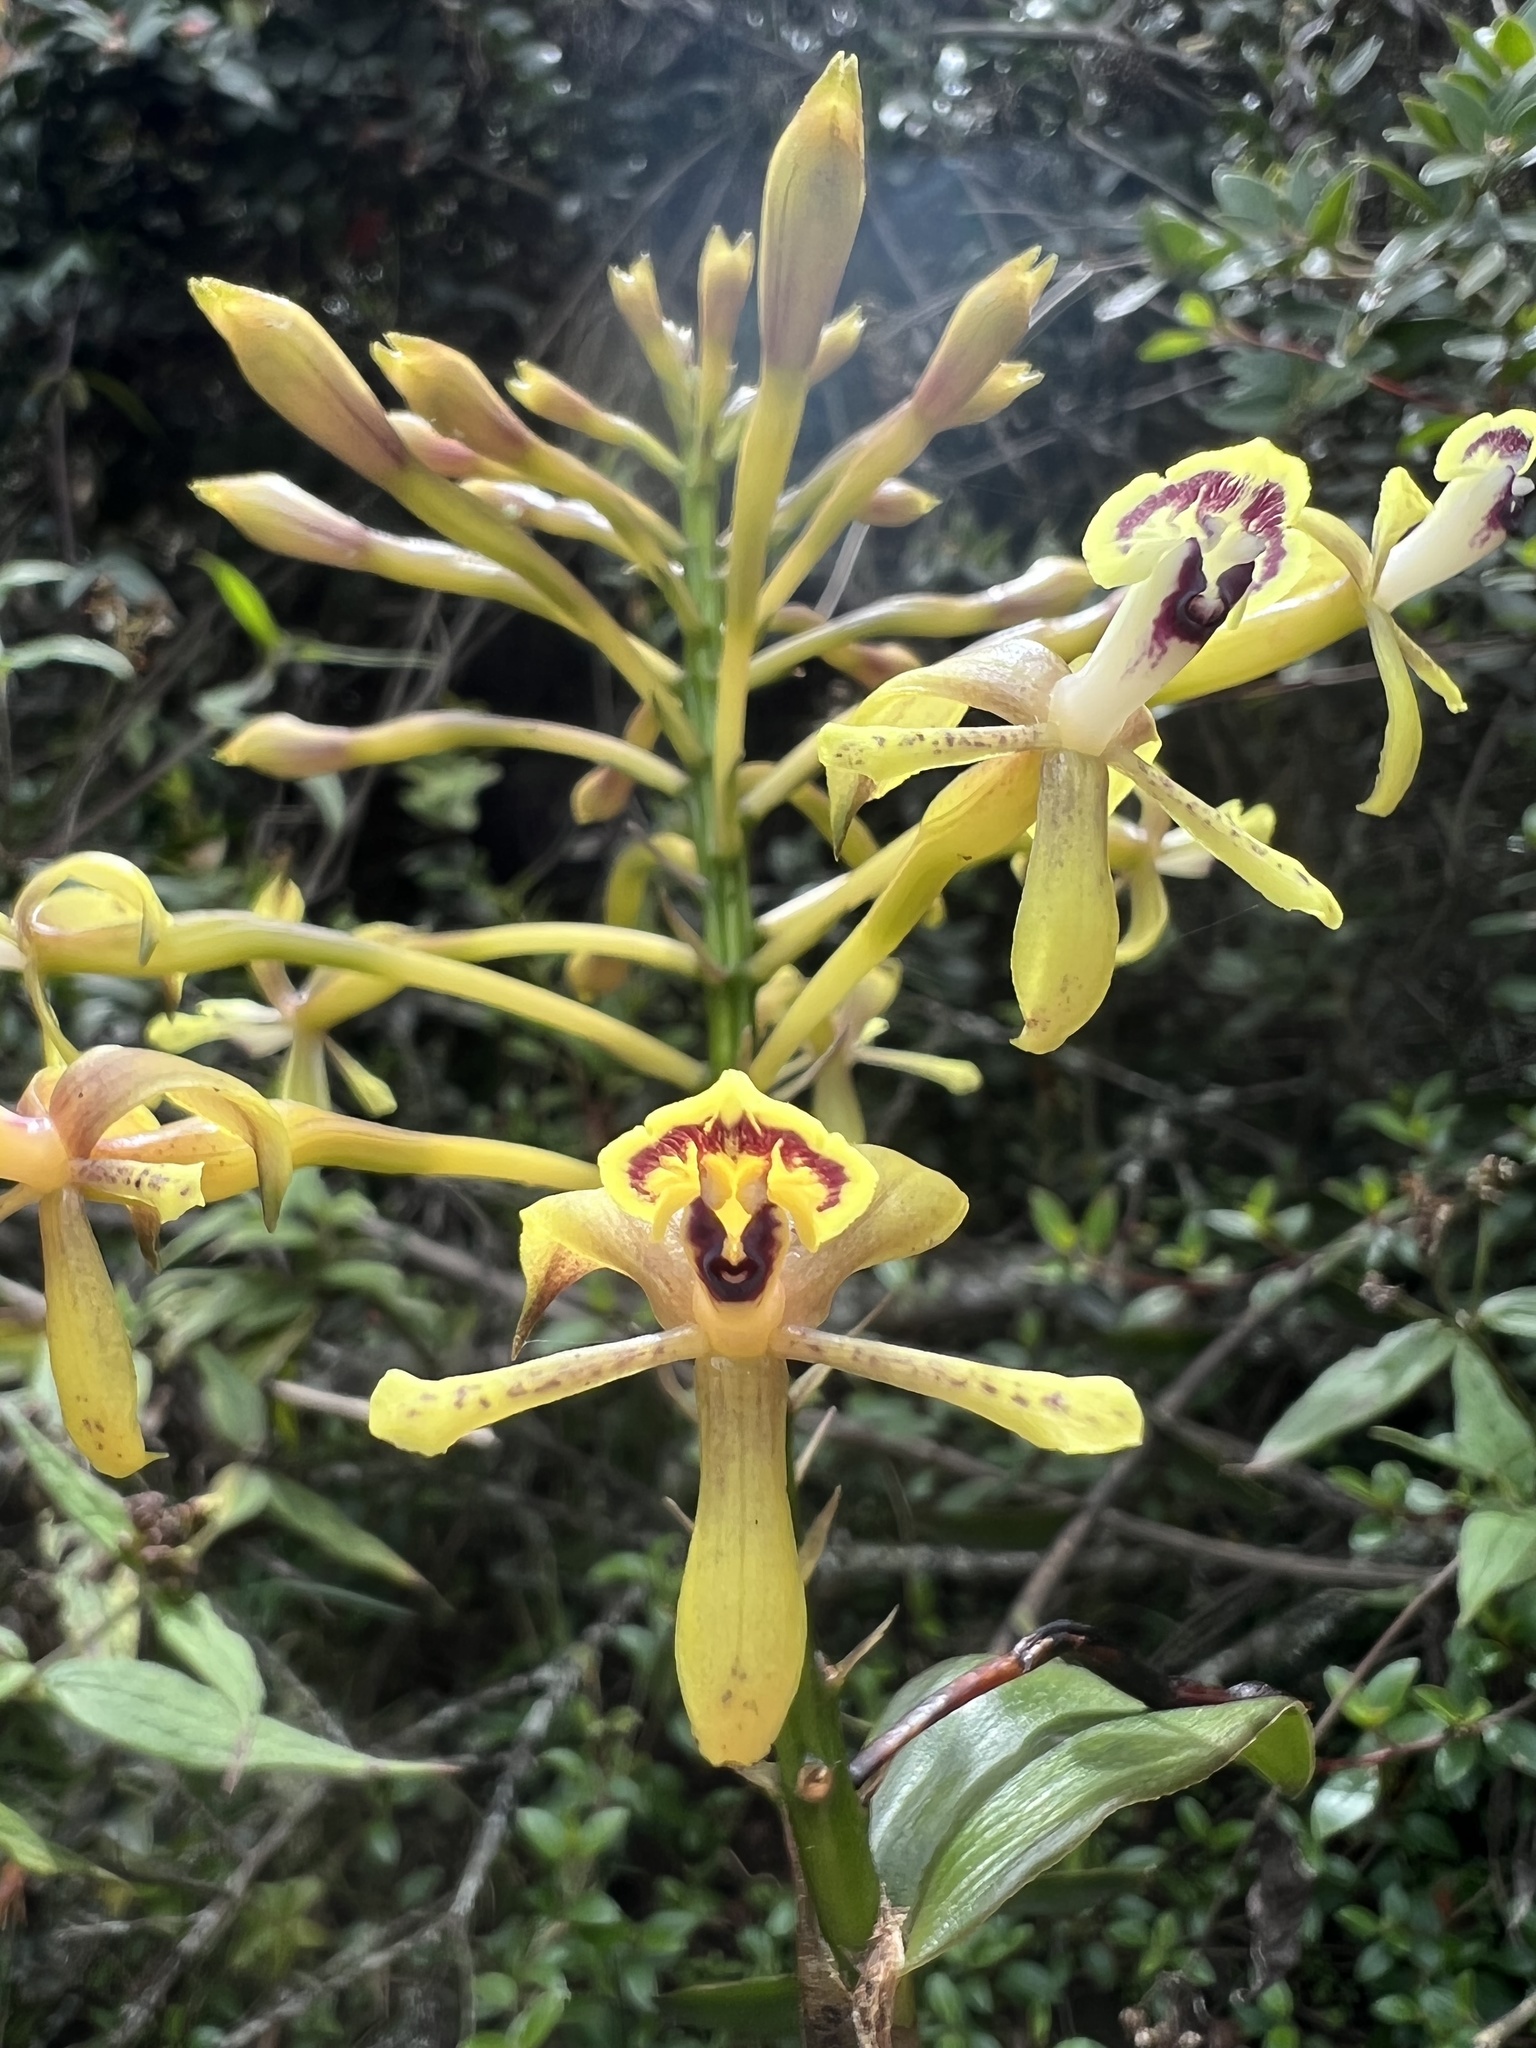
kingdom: Plantae
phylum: Tracheophyta
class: Liliopsida
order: Asparagales
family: Orchidaceae
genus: Epidendrum
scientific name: Epidendrum scytocladium
